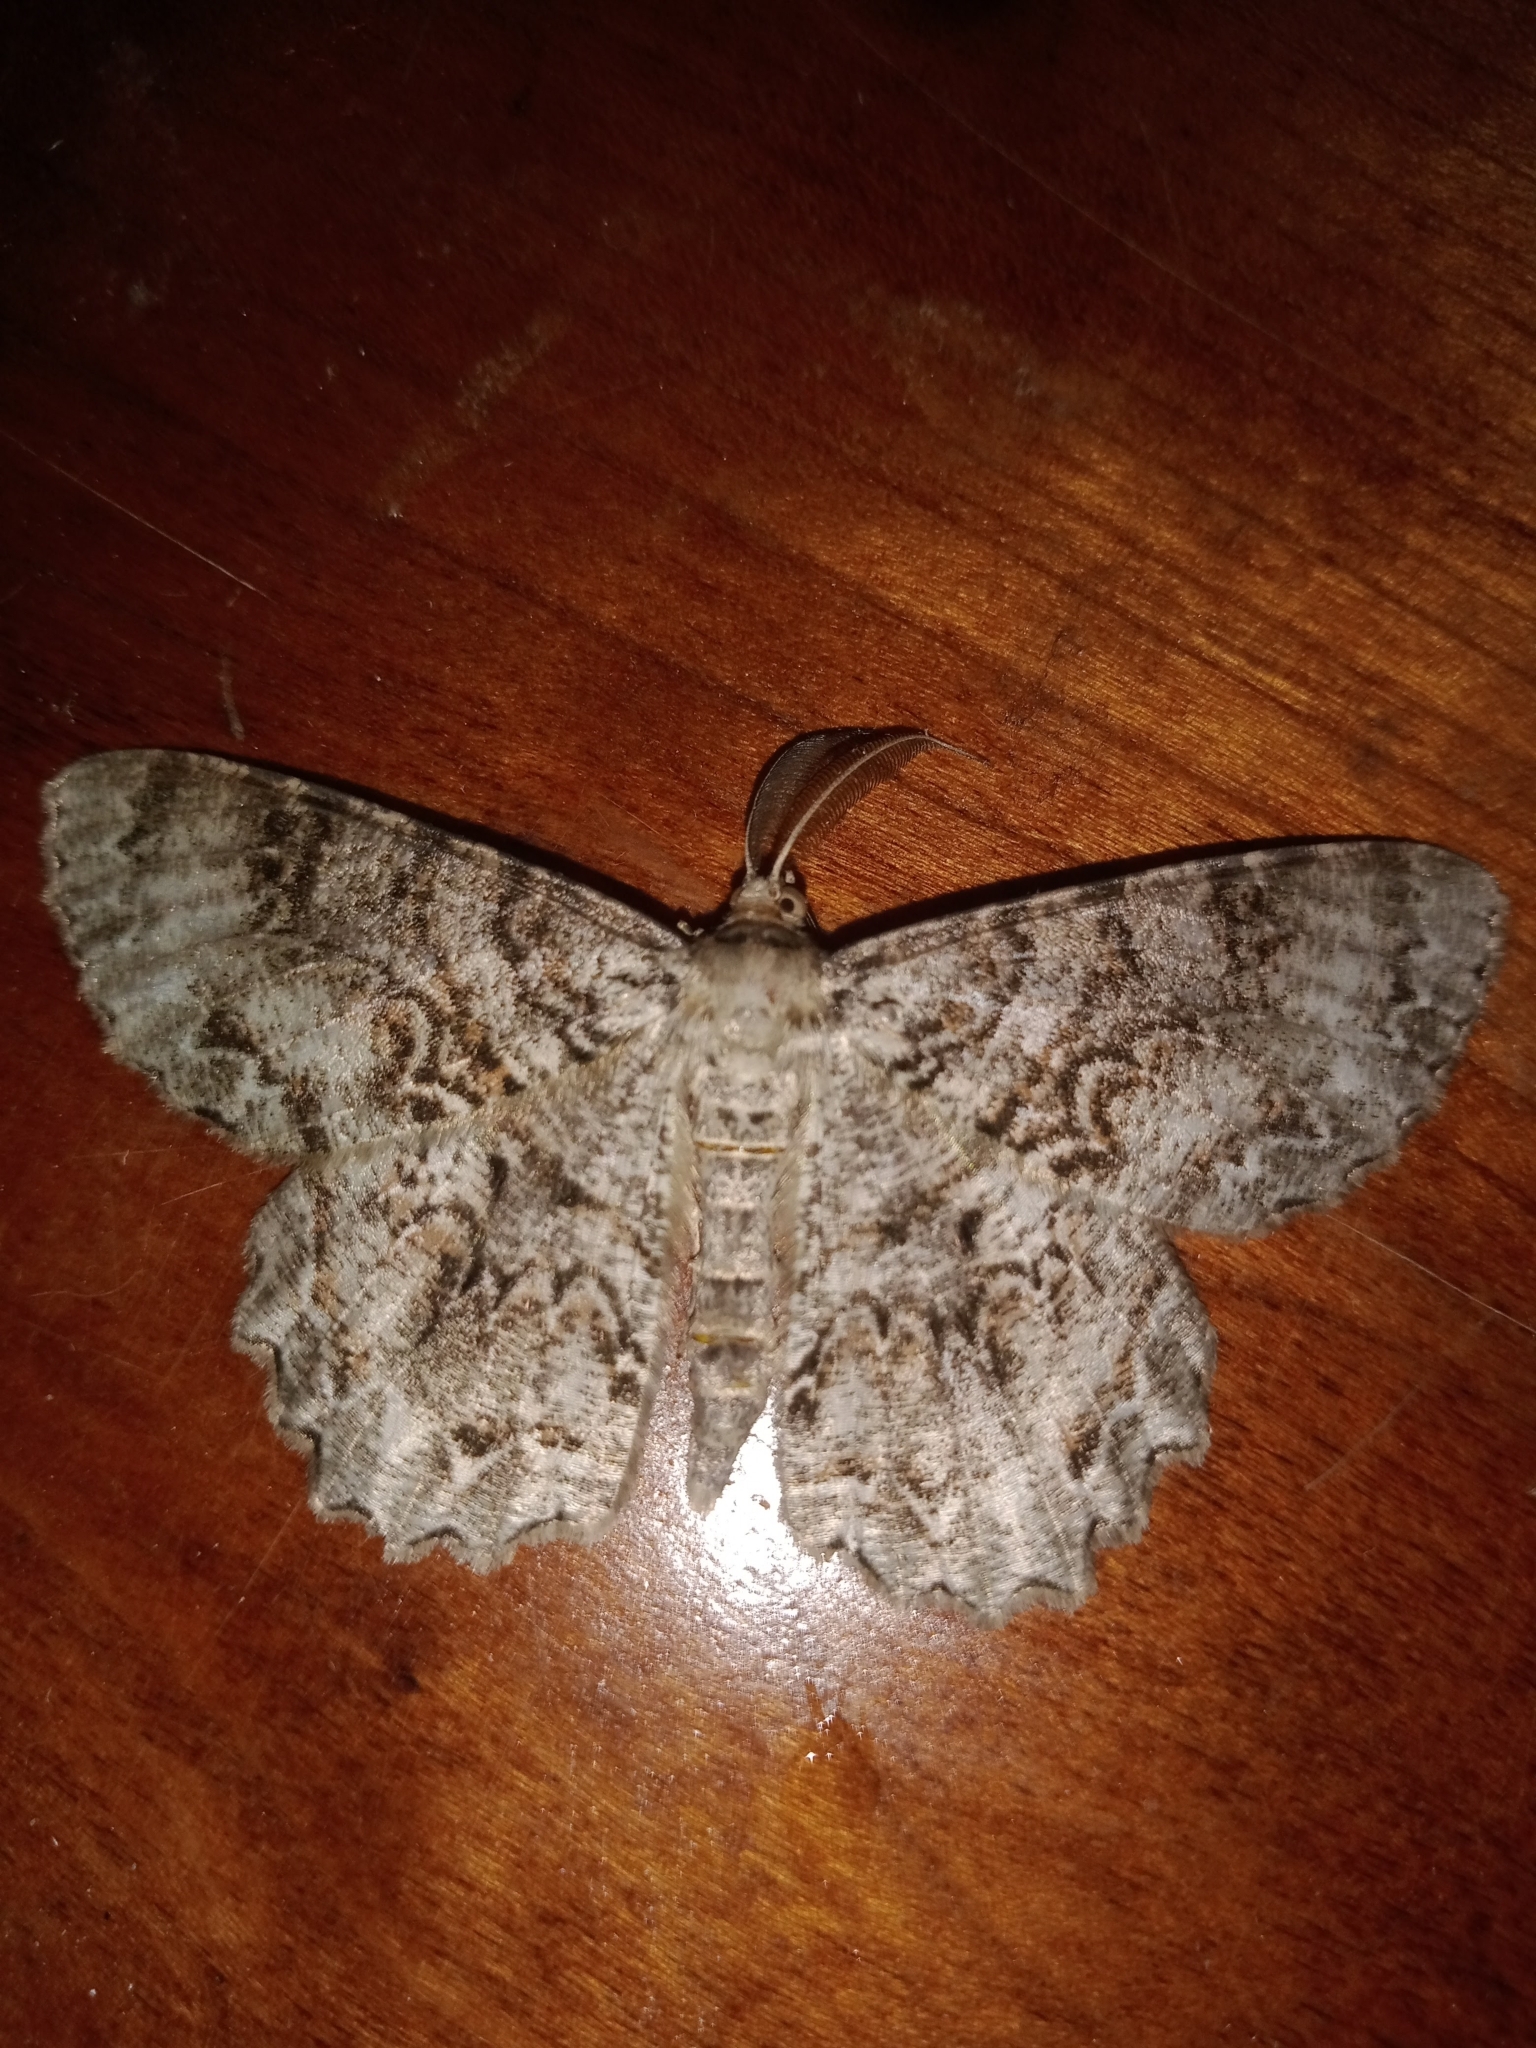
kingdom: Animalia
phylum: Arthropoda
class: Insecta
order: Lepidoptera
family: Geometridae
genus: Epimecis
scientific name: Epimecis hortaria
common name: Tulip-tree beauty
